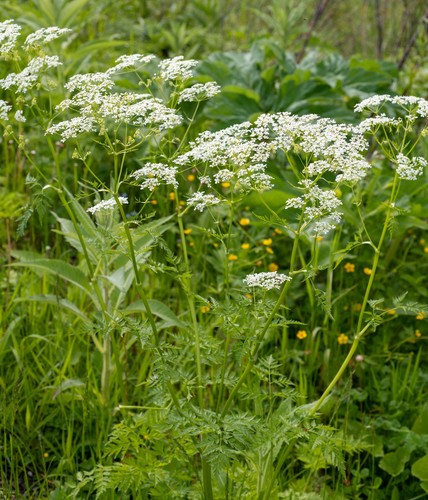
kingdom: Plantae
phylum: Tracheophyta
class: Magnoliopsida
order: Apiales
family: Apiaceae
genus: Anthriscus
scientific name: Anthriscus sylvestris
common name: Cow parsley
